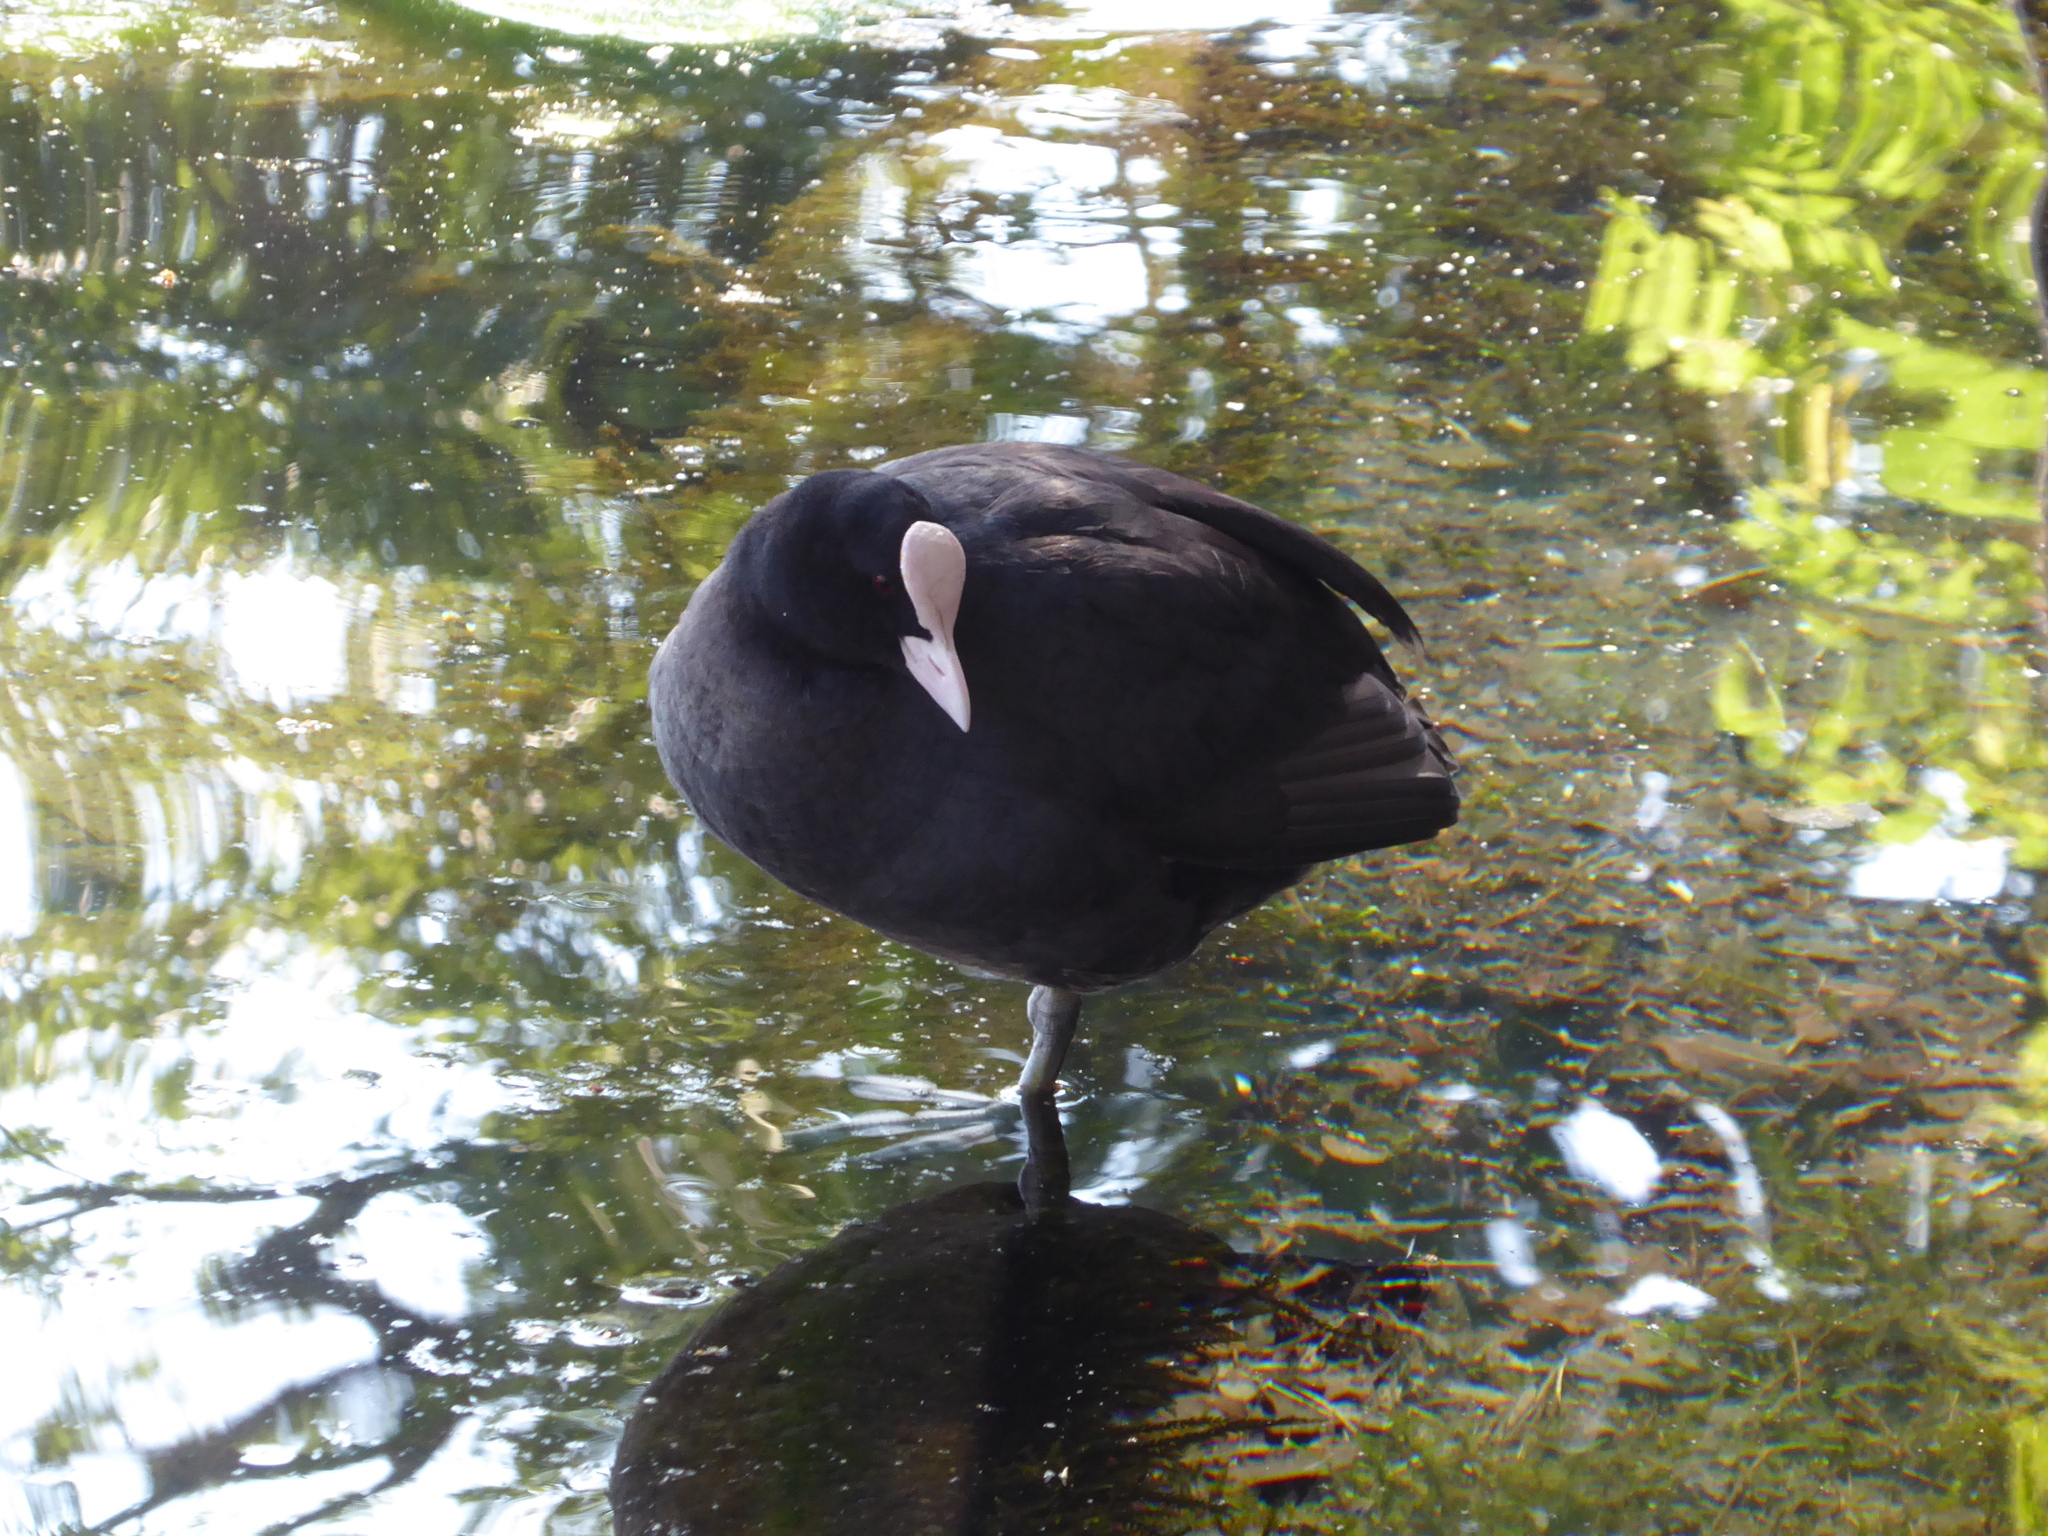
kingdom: Animalia
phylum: Chordata
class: Aves
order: Gruiformes
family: Rallidae
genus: Fulica
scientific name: Fulica atra
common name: Eurasian coot
